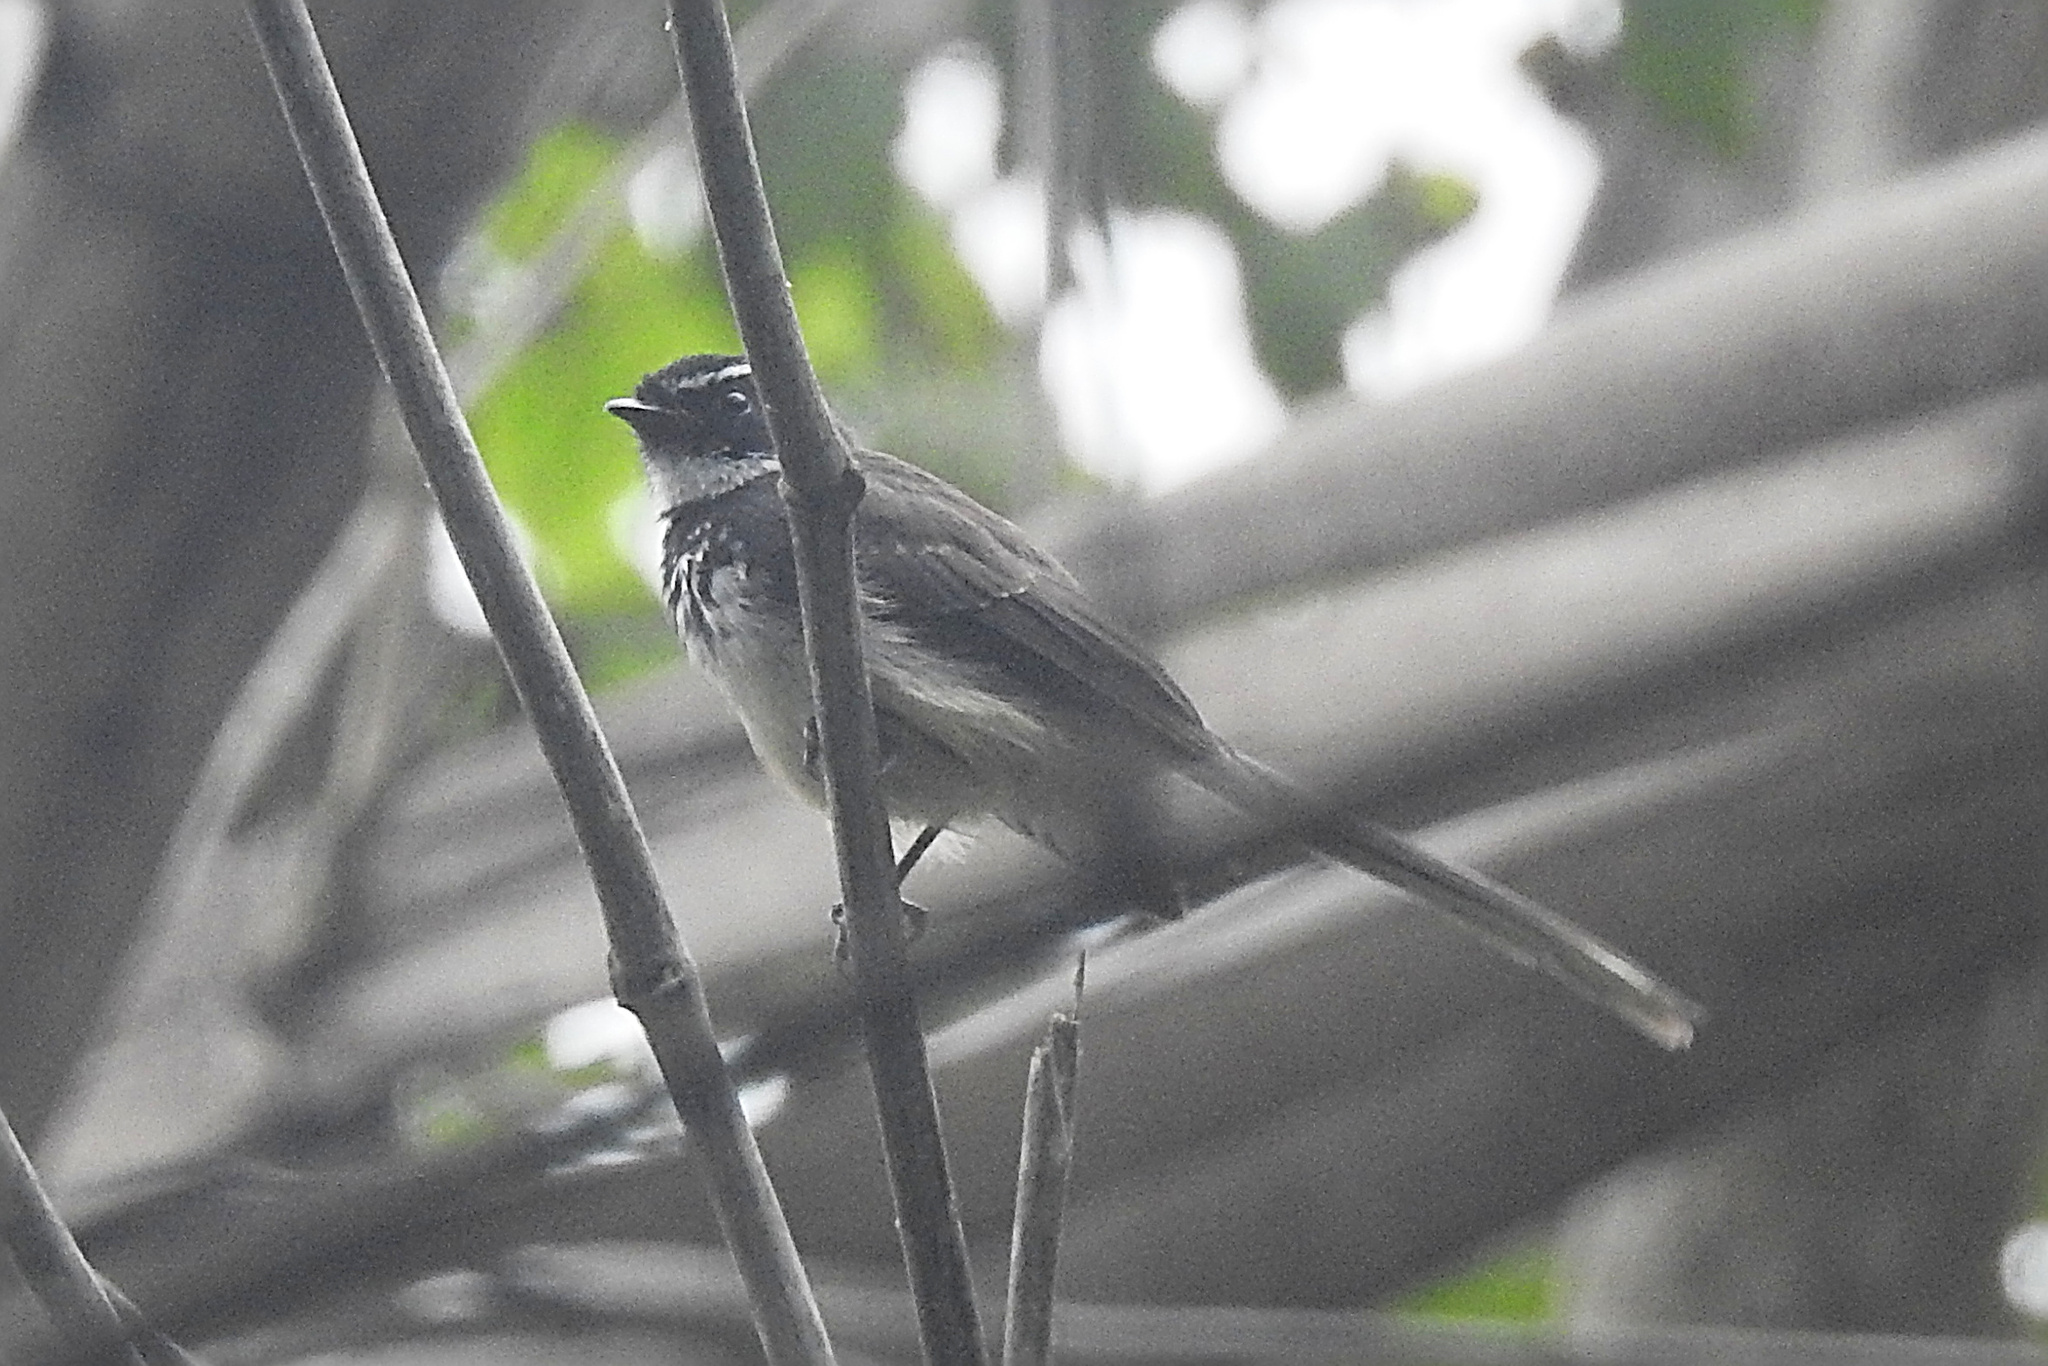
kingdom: Animalia
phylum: Chordata
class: Aves
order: Passeriformes
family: Rhipiduridae
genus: Rhipidura
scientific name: Rhipidura albogularis
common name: White-spotted fantail
